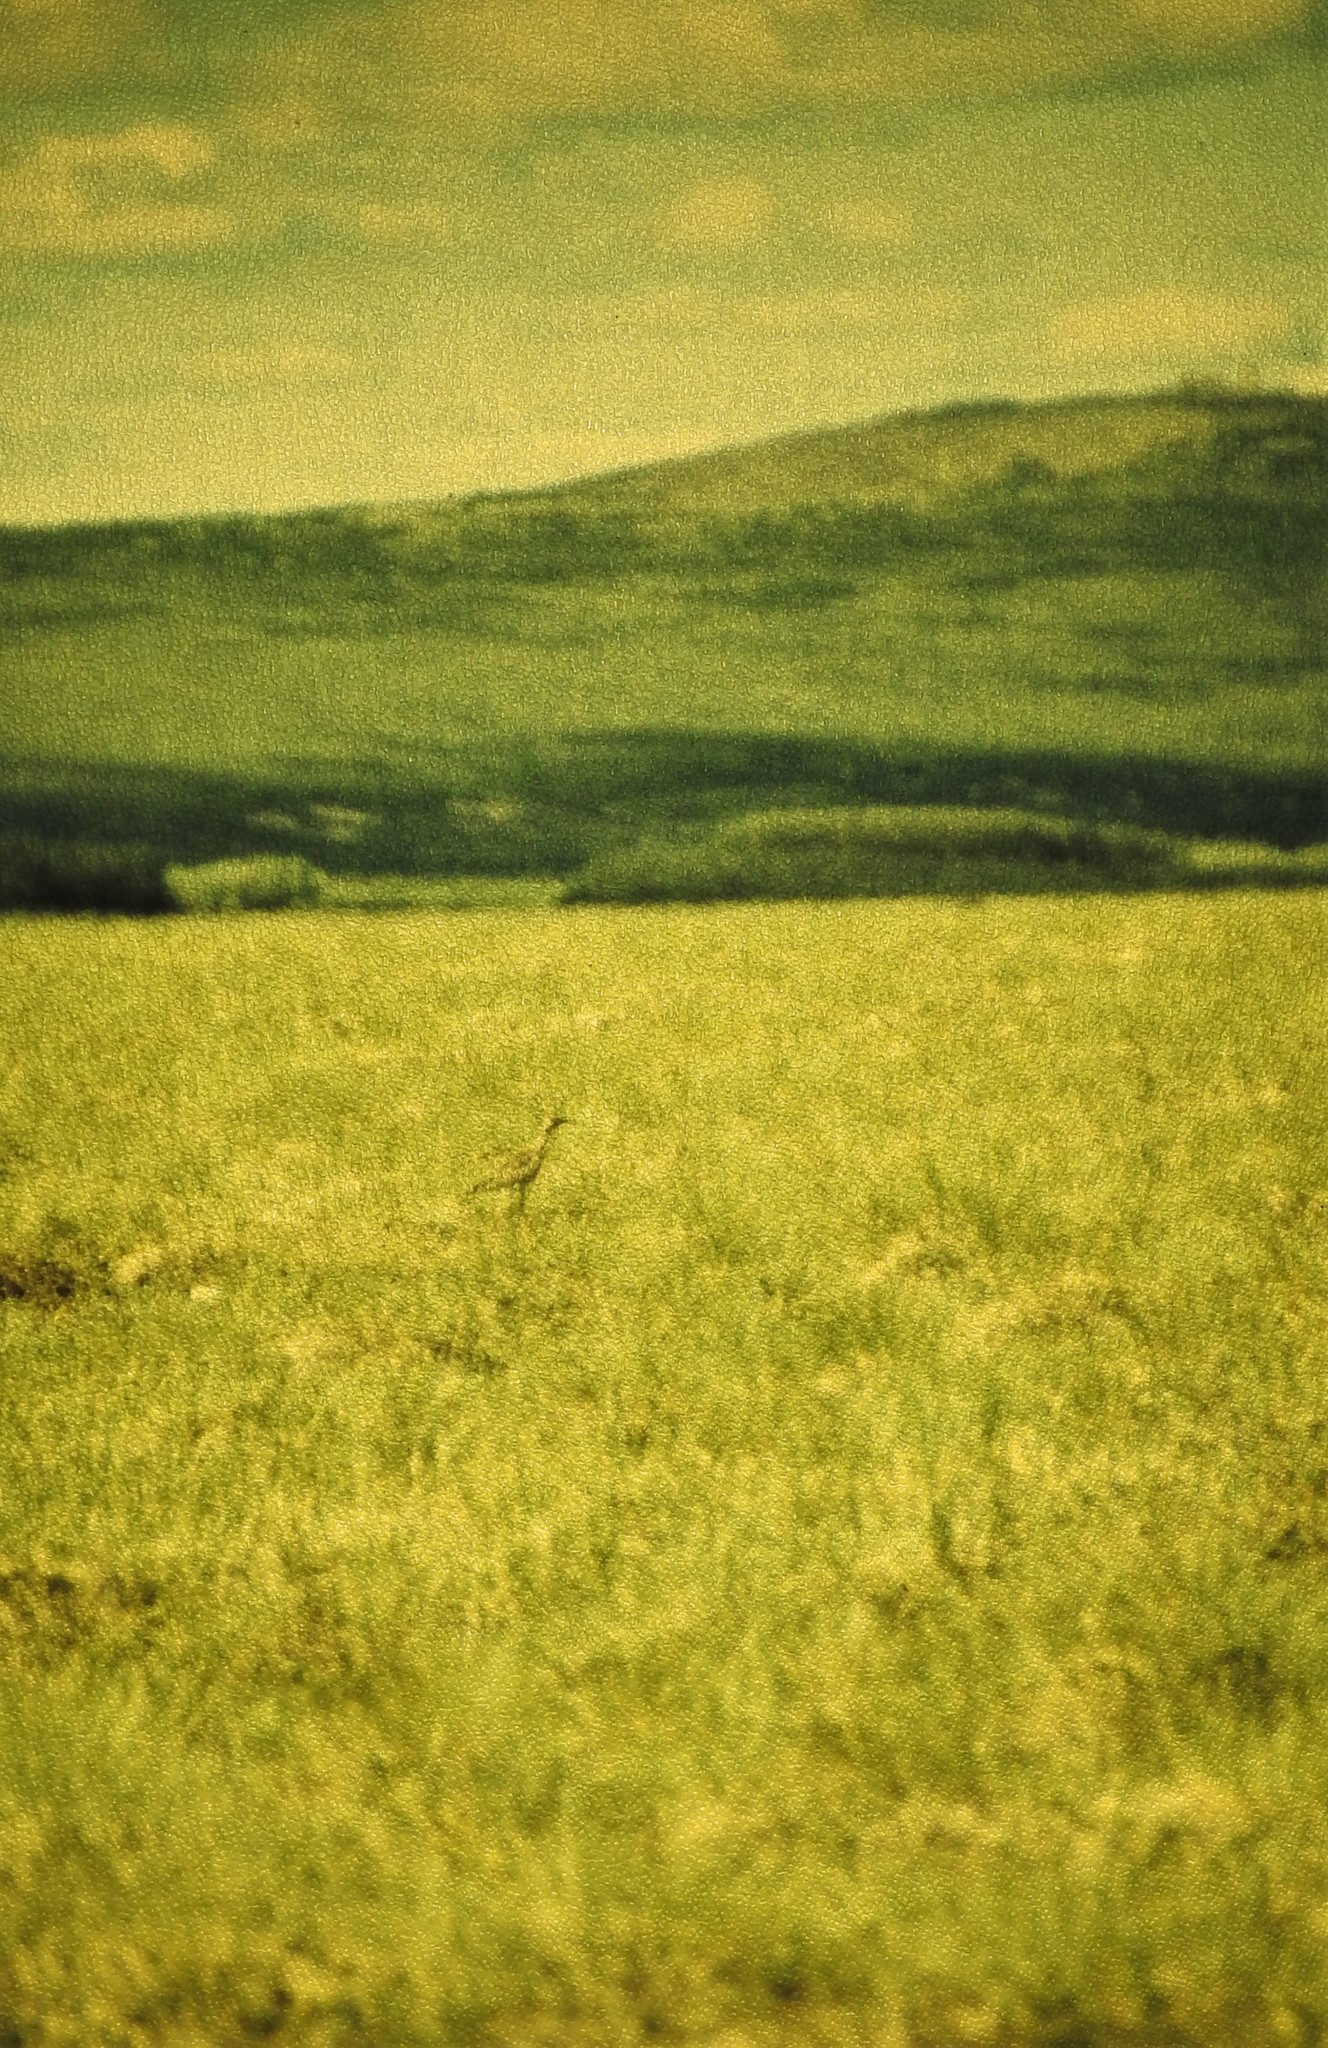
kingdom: Animalia
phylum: Chordata
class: Aves
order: Charadriiformes
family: Scolopacidae
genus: Numenius
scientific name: Numenius phaeopus
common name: Whimbrel
